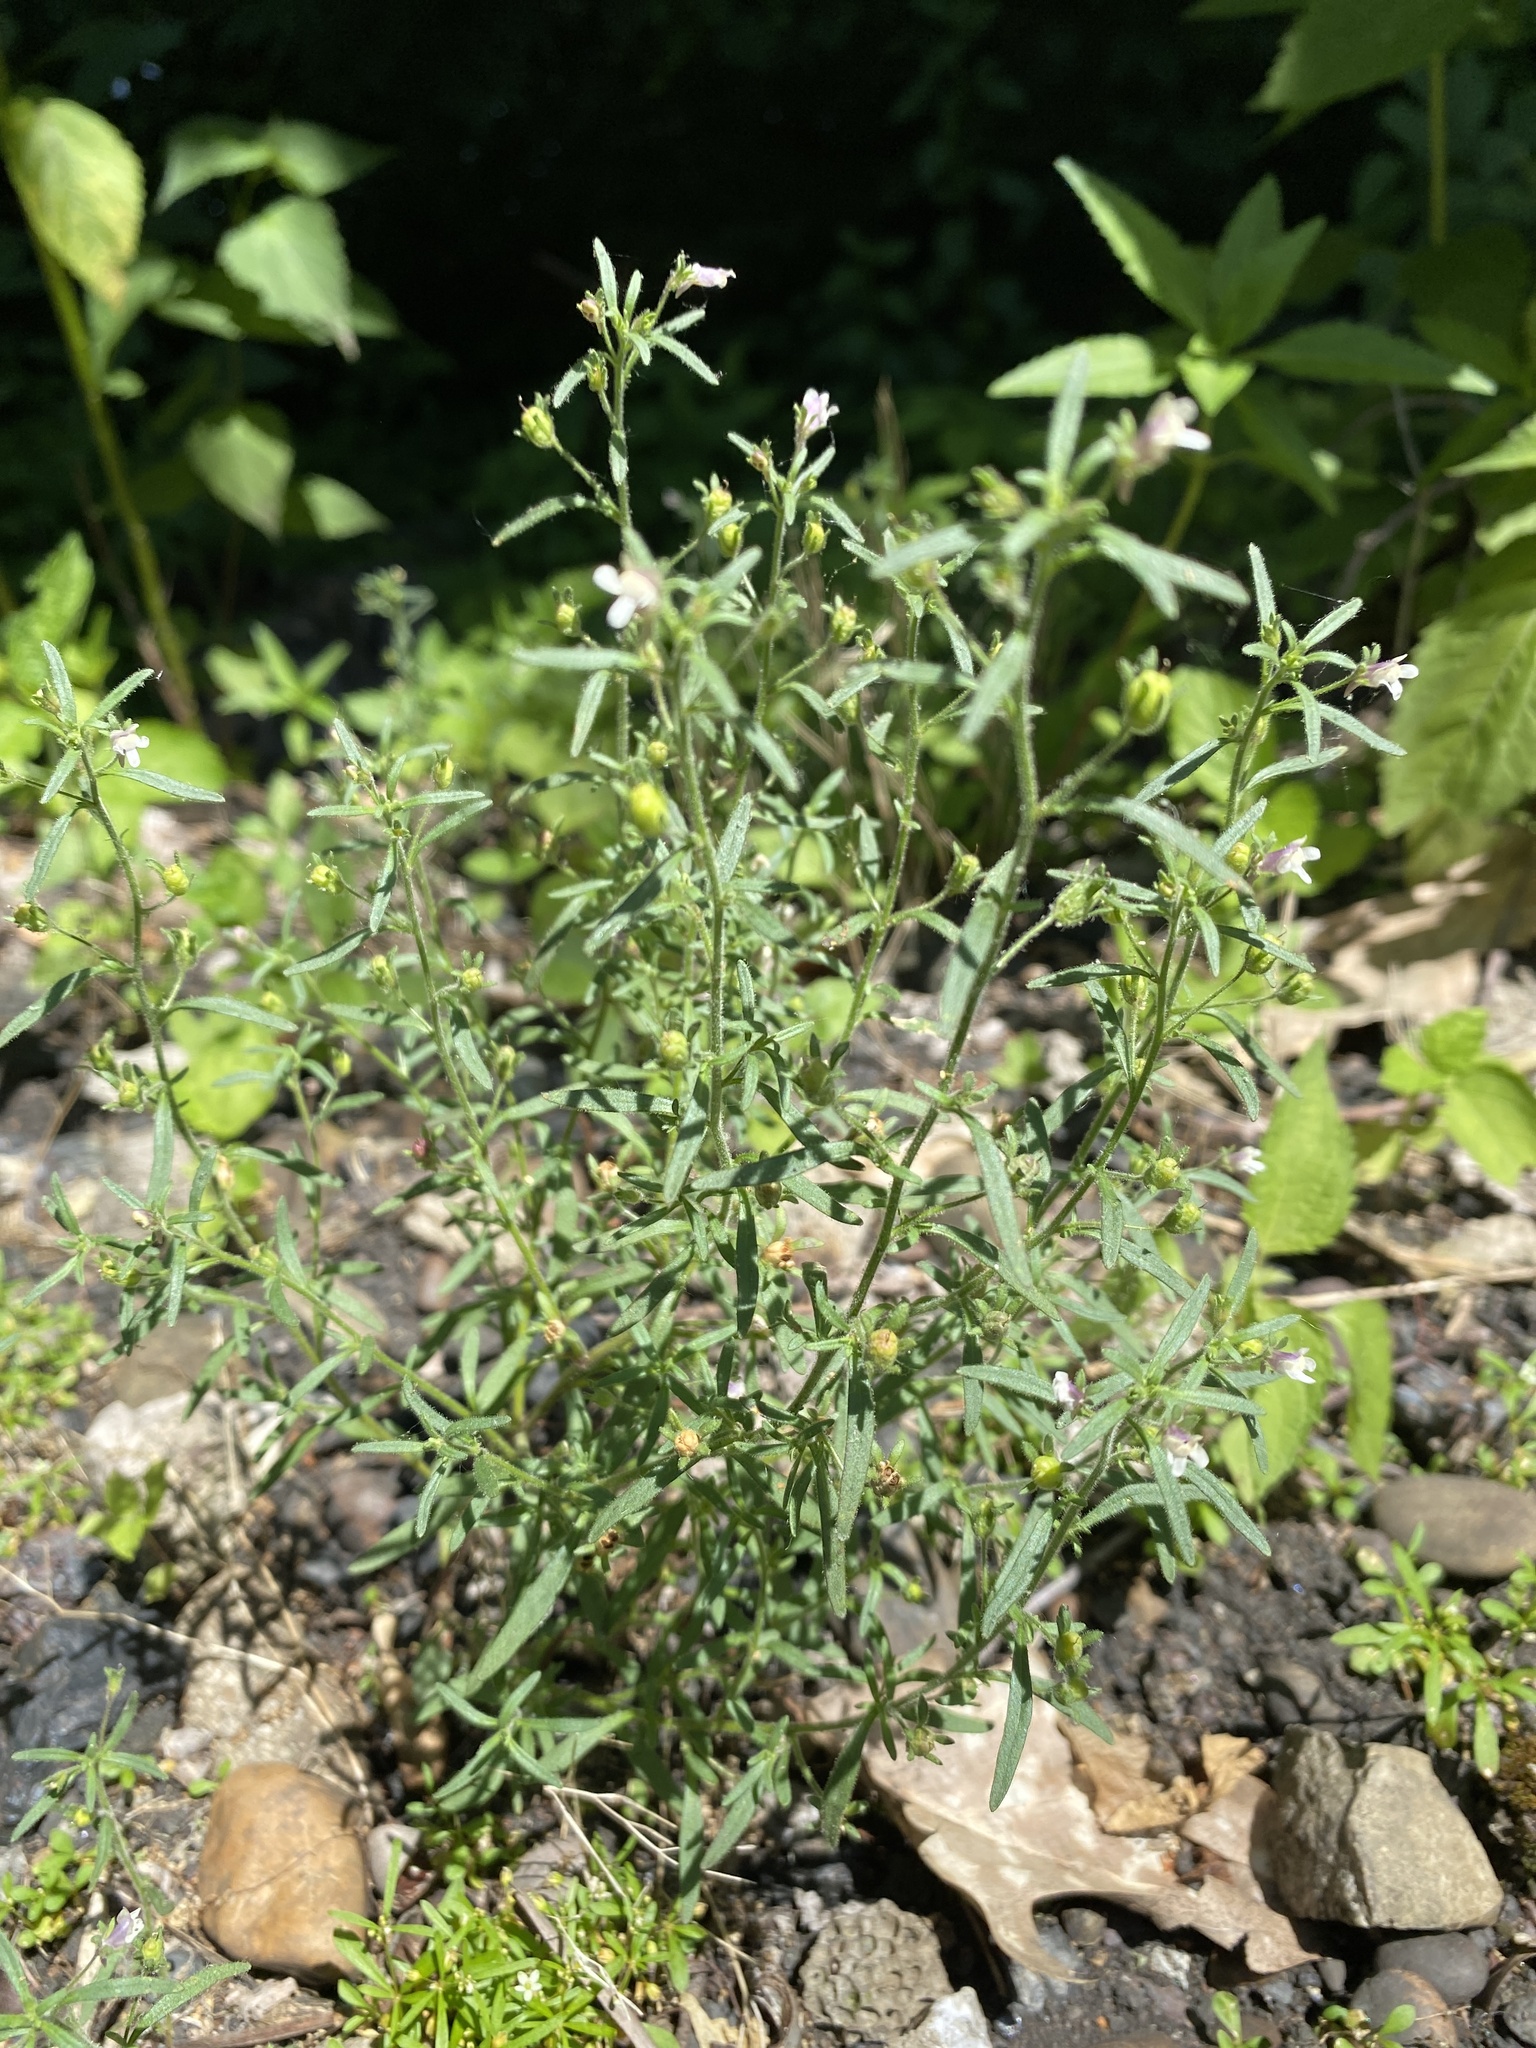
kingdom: Plantae
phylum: Tracheophyta
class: Magnoliopsida
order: Lamiales
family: Plantaginaceae
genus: Chaenorhinum
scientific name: Chaenorhinum minus
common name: Dwarf snapdragon
